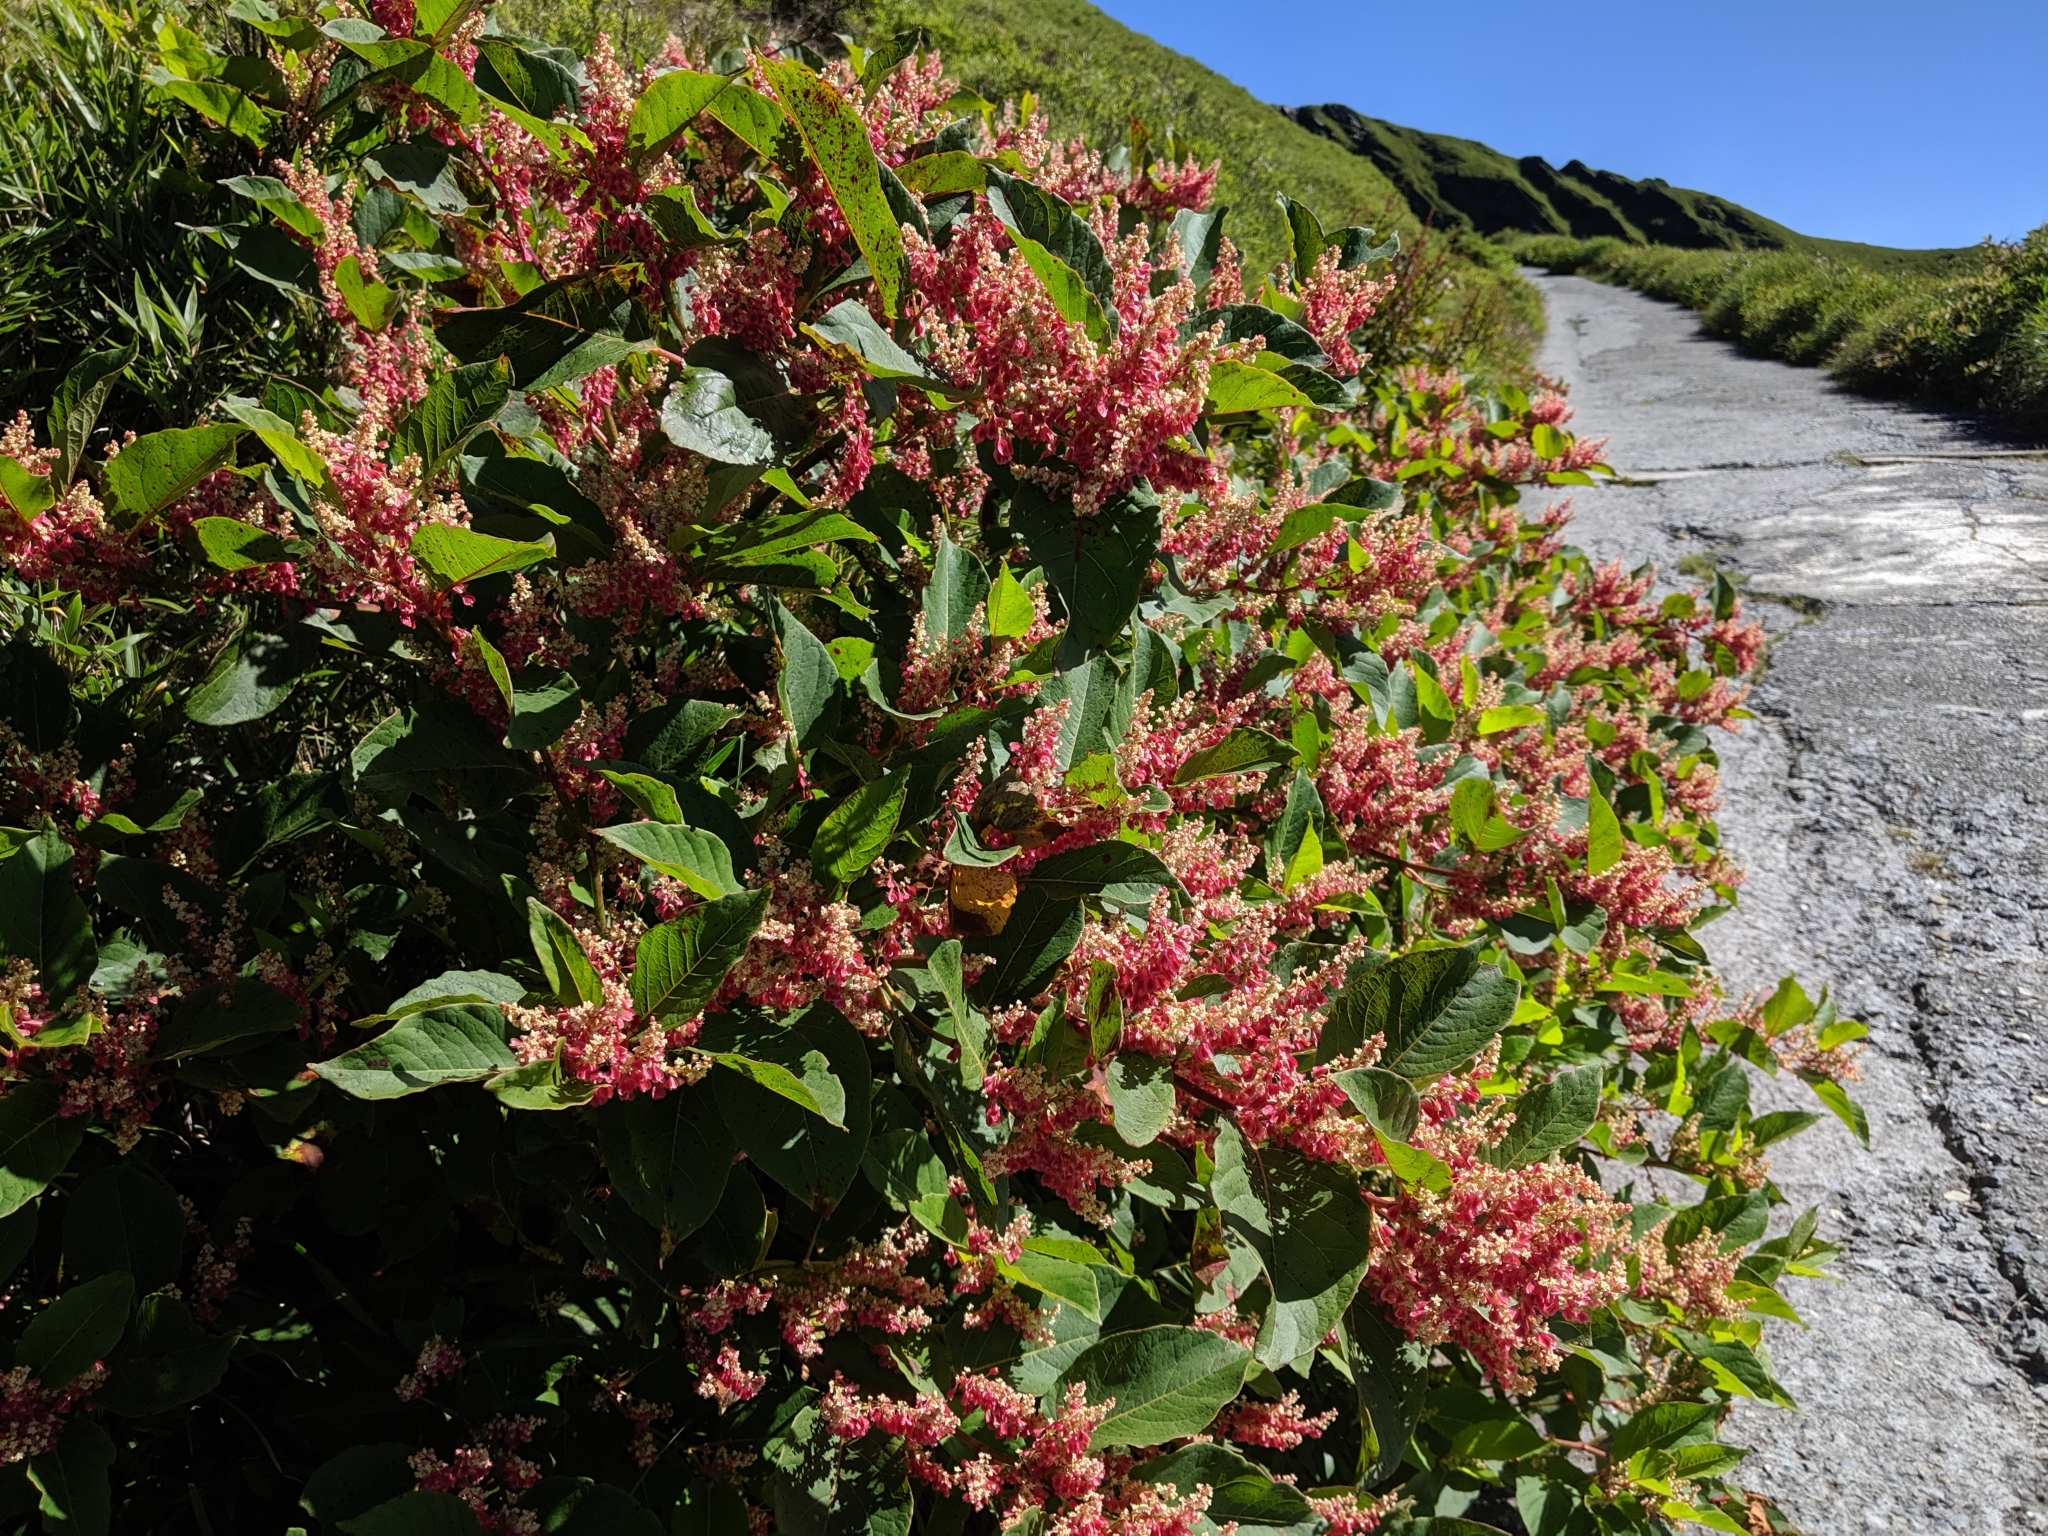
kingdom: Plantae
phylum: Tracheophyta
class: Magnoliopsida
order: Caryophyllales
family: Polygonaceae
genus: Reynoutria
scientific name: Reynoutria japonica
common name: Japanese knotweed
